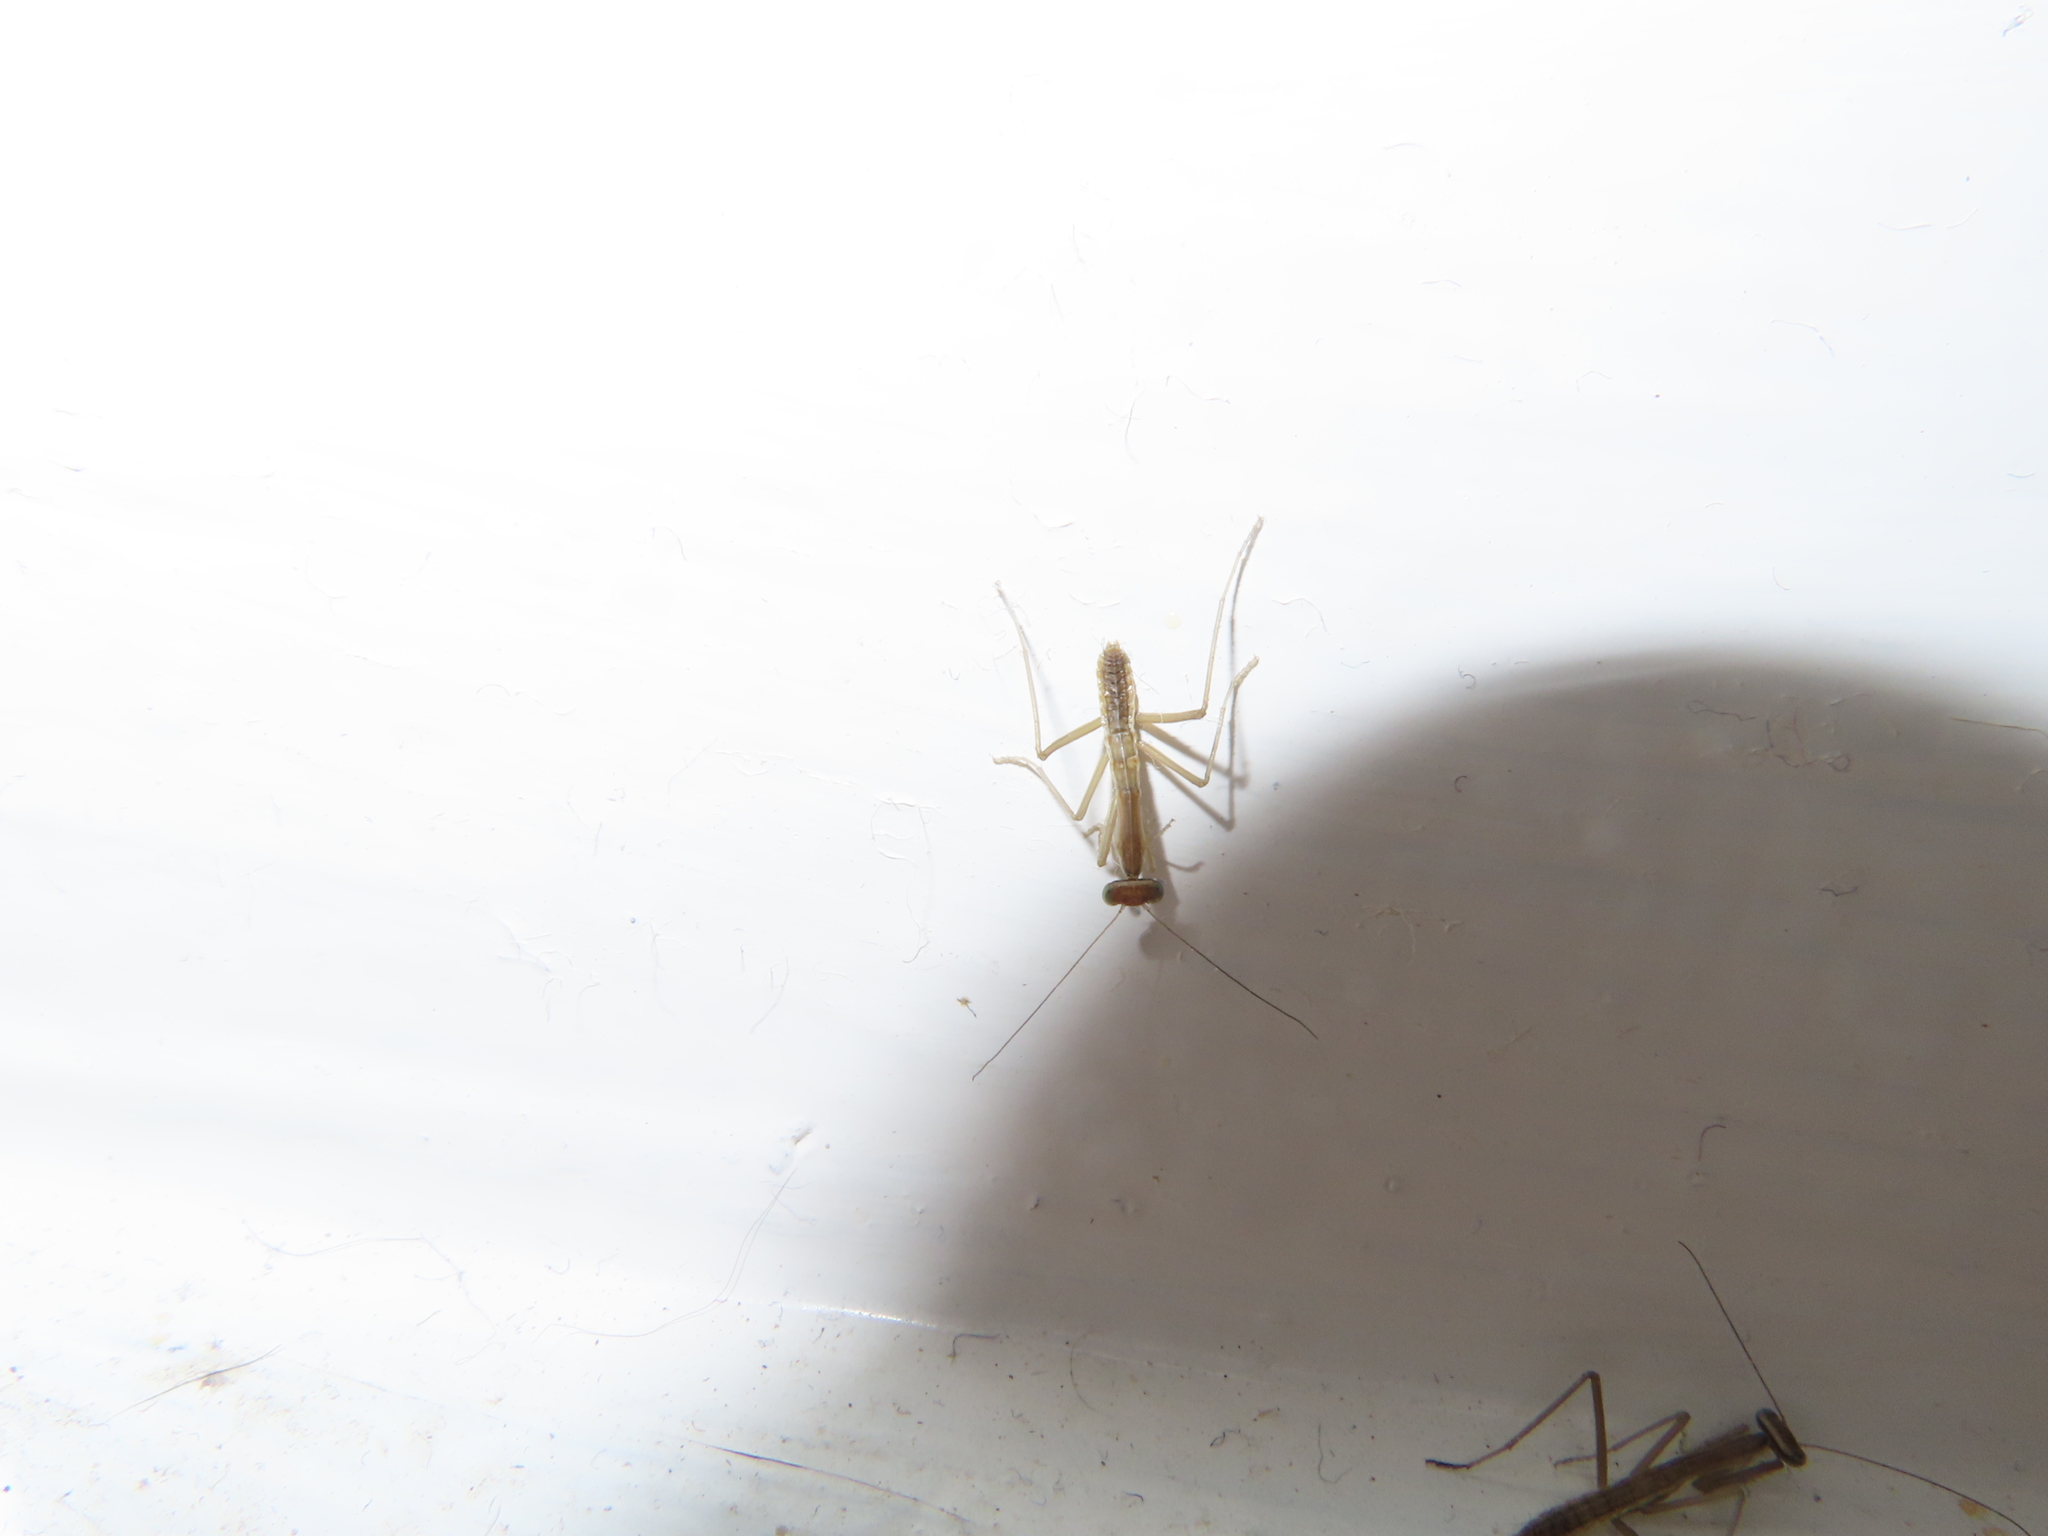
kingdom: Animalia
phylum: Arthropoda
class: Insecta
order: Mantodea
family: Mantidae
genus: Tenodera
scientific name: Tenodera sinensis
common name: Chinese mantis
